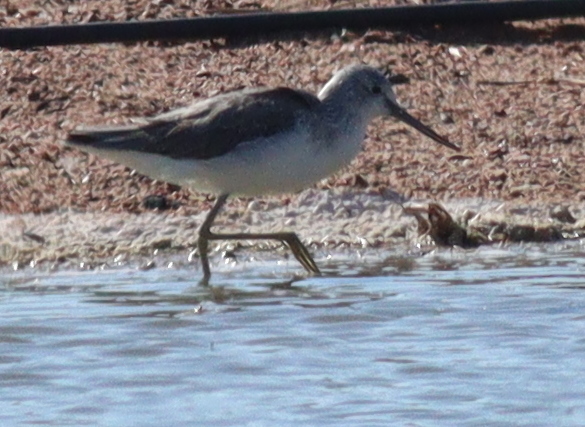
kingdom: Animalia
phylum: Chordata
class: Aves
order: Charadriiformes
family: Scolopacidae
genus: Tringa
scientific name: Tringa nebularia
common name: Common greenshank
